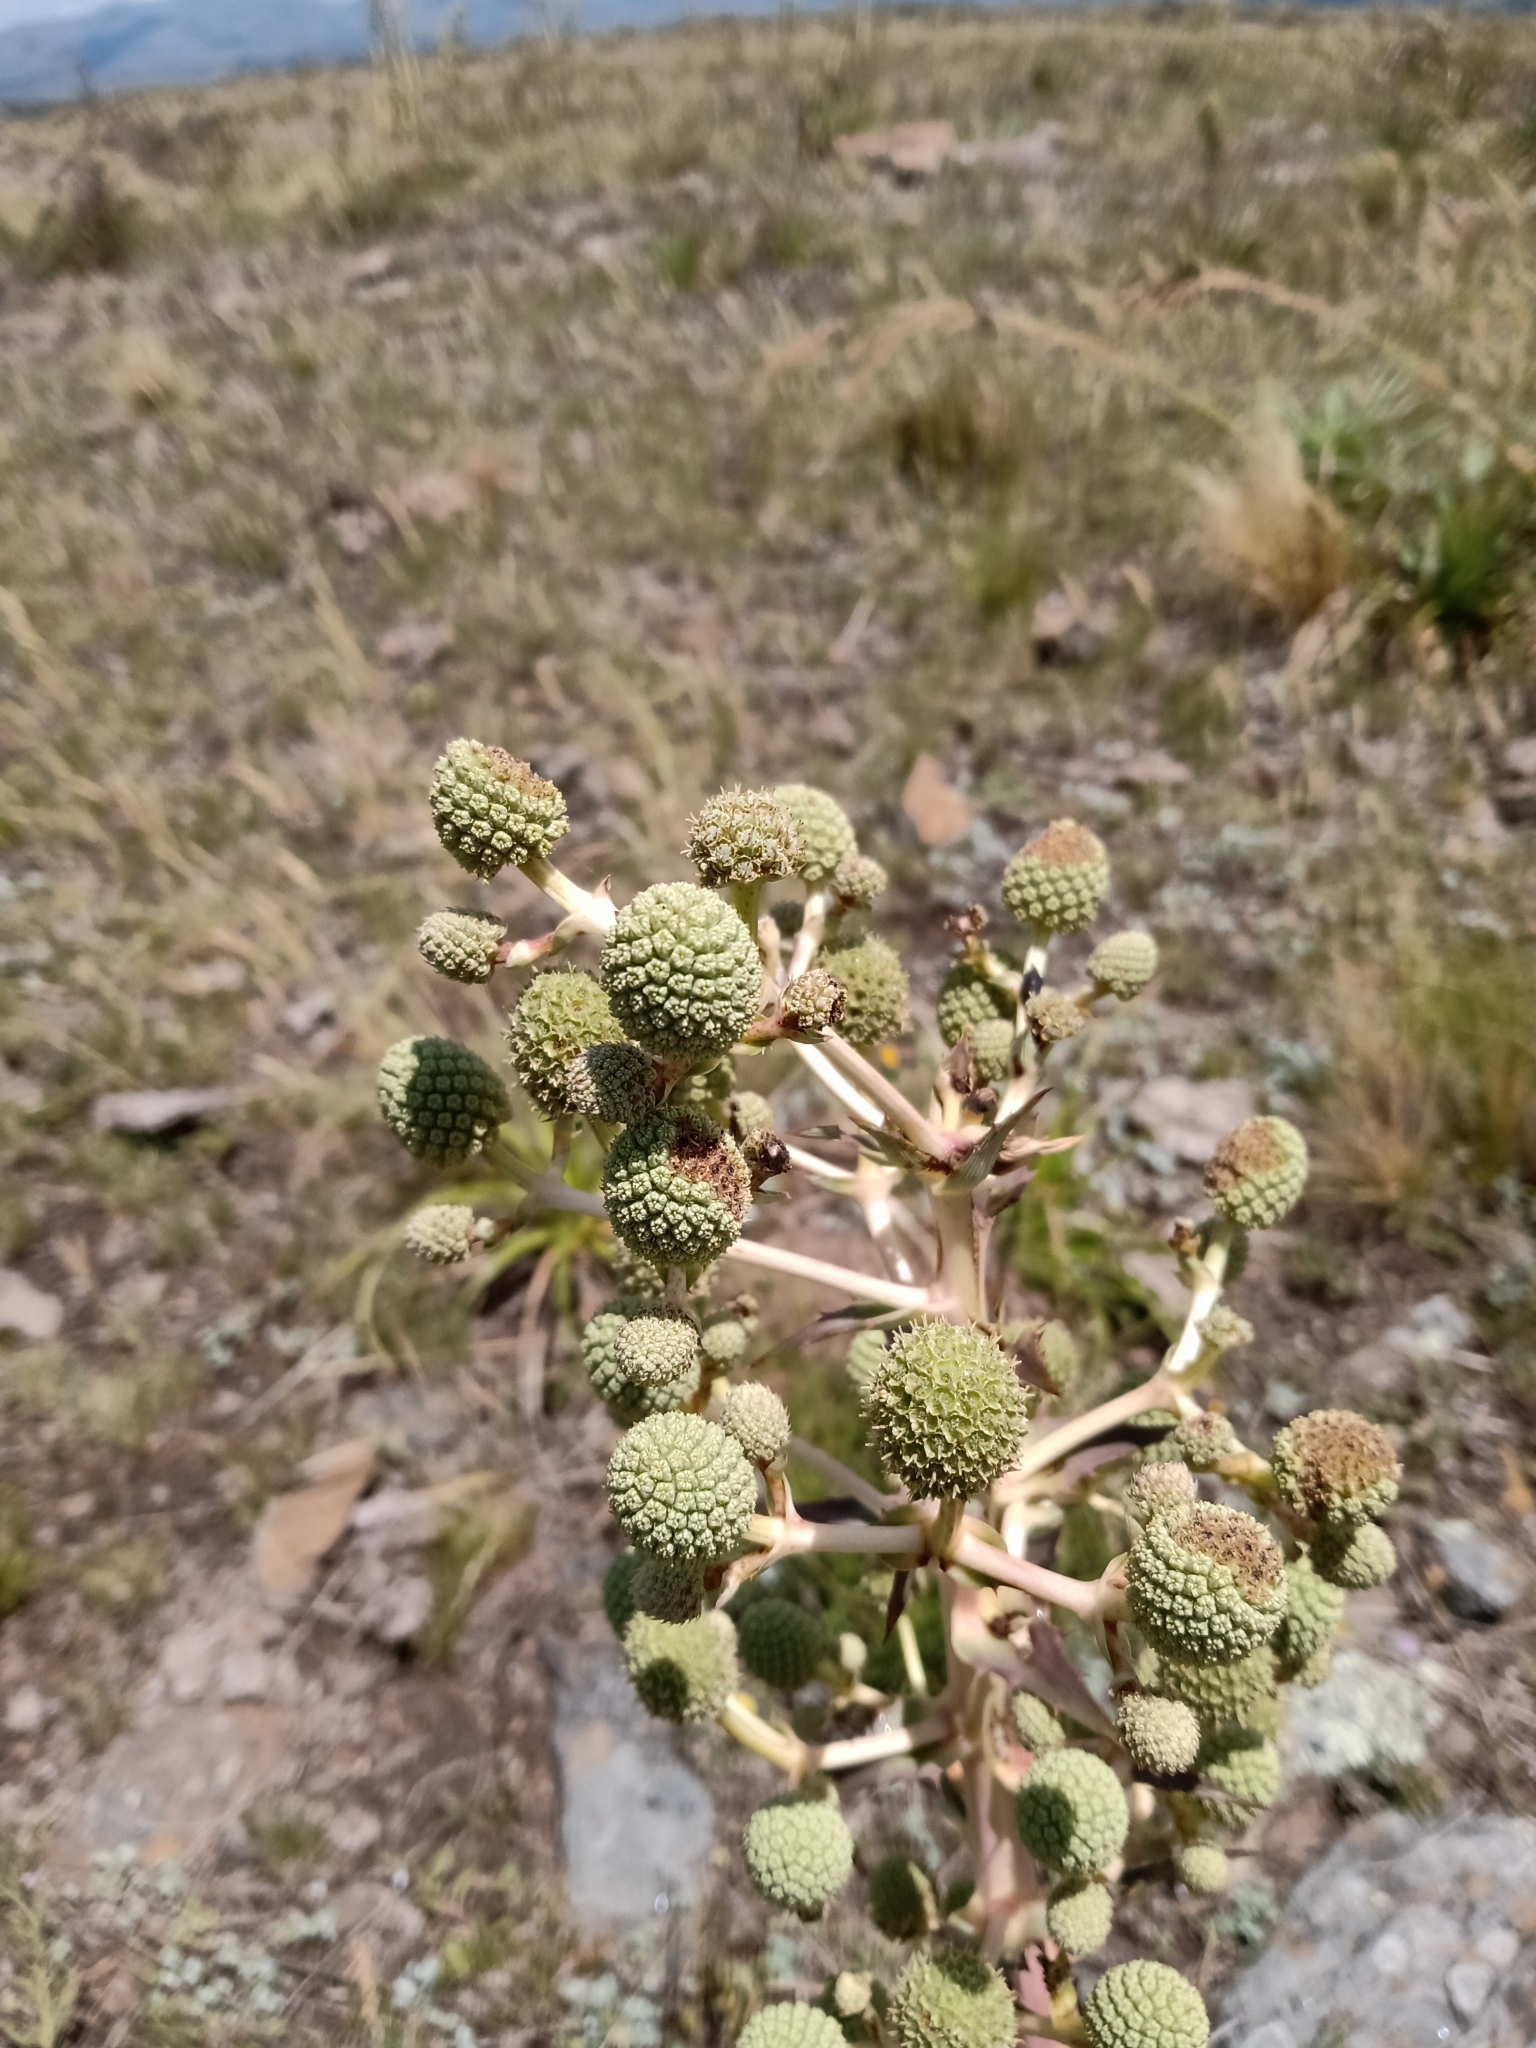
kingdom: Plantae
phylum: Tracheophyta
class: Magnoliopsida
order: Apiales
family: Apiaceae
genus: Eryngium
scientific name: Eryngium humboldtii
